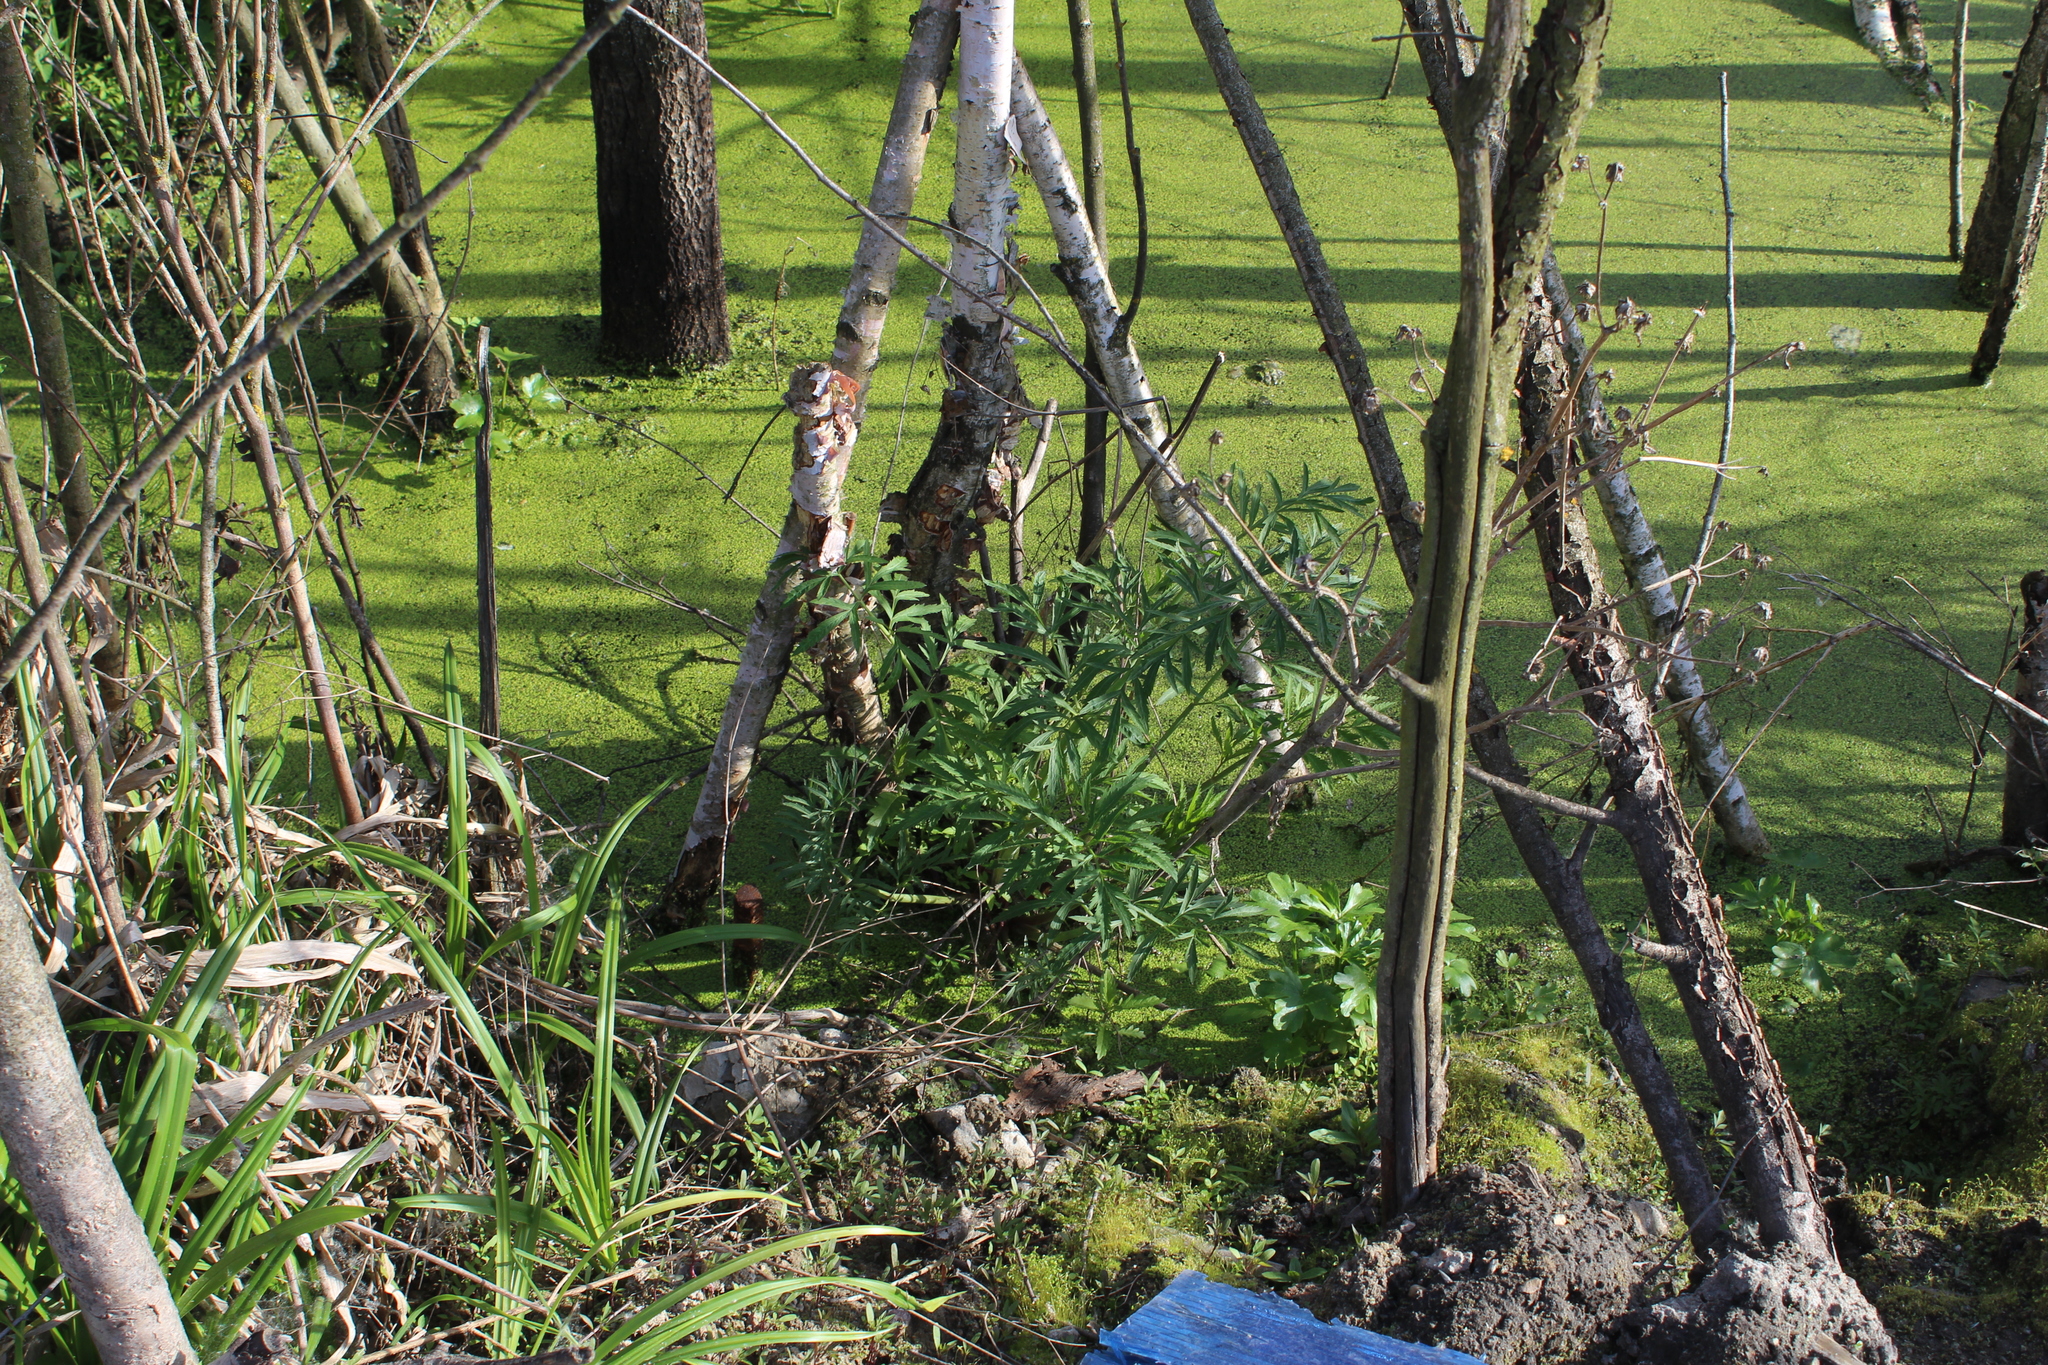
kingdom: Plantae
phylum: Tracheophyta
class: Magnoliopsida
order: Apiales
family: Apiaceae
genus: Cicuta
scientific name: Cicuta virosa
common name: Cowbane
